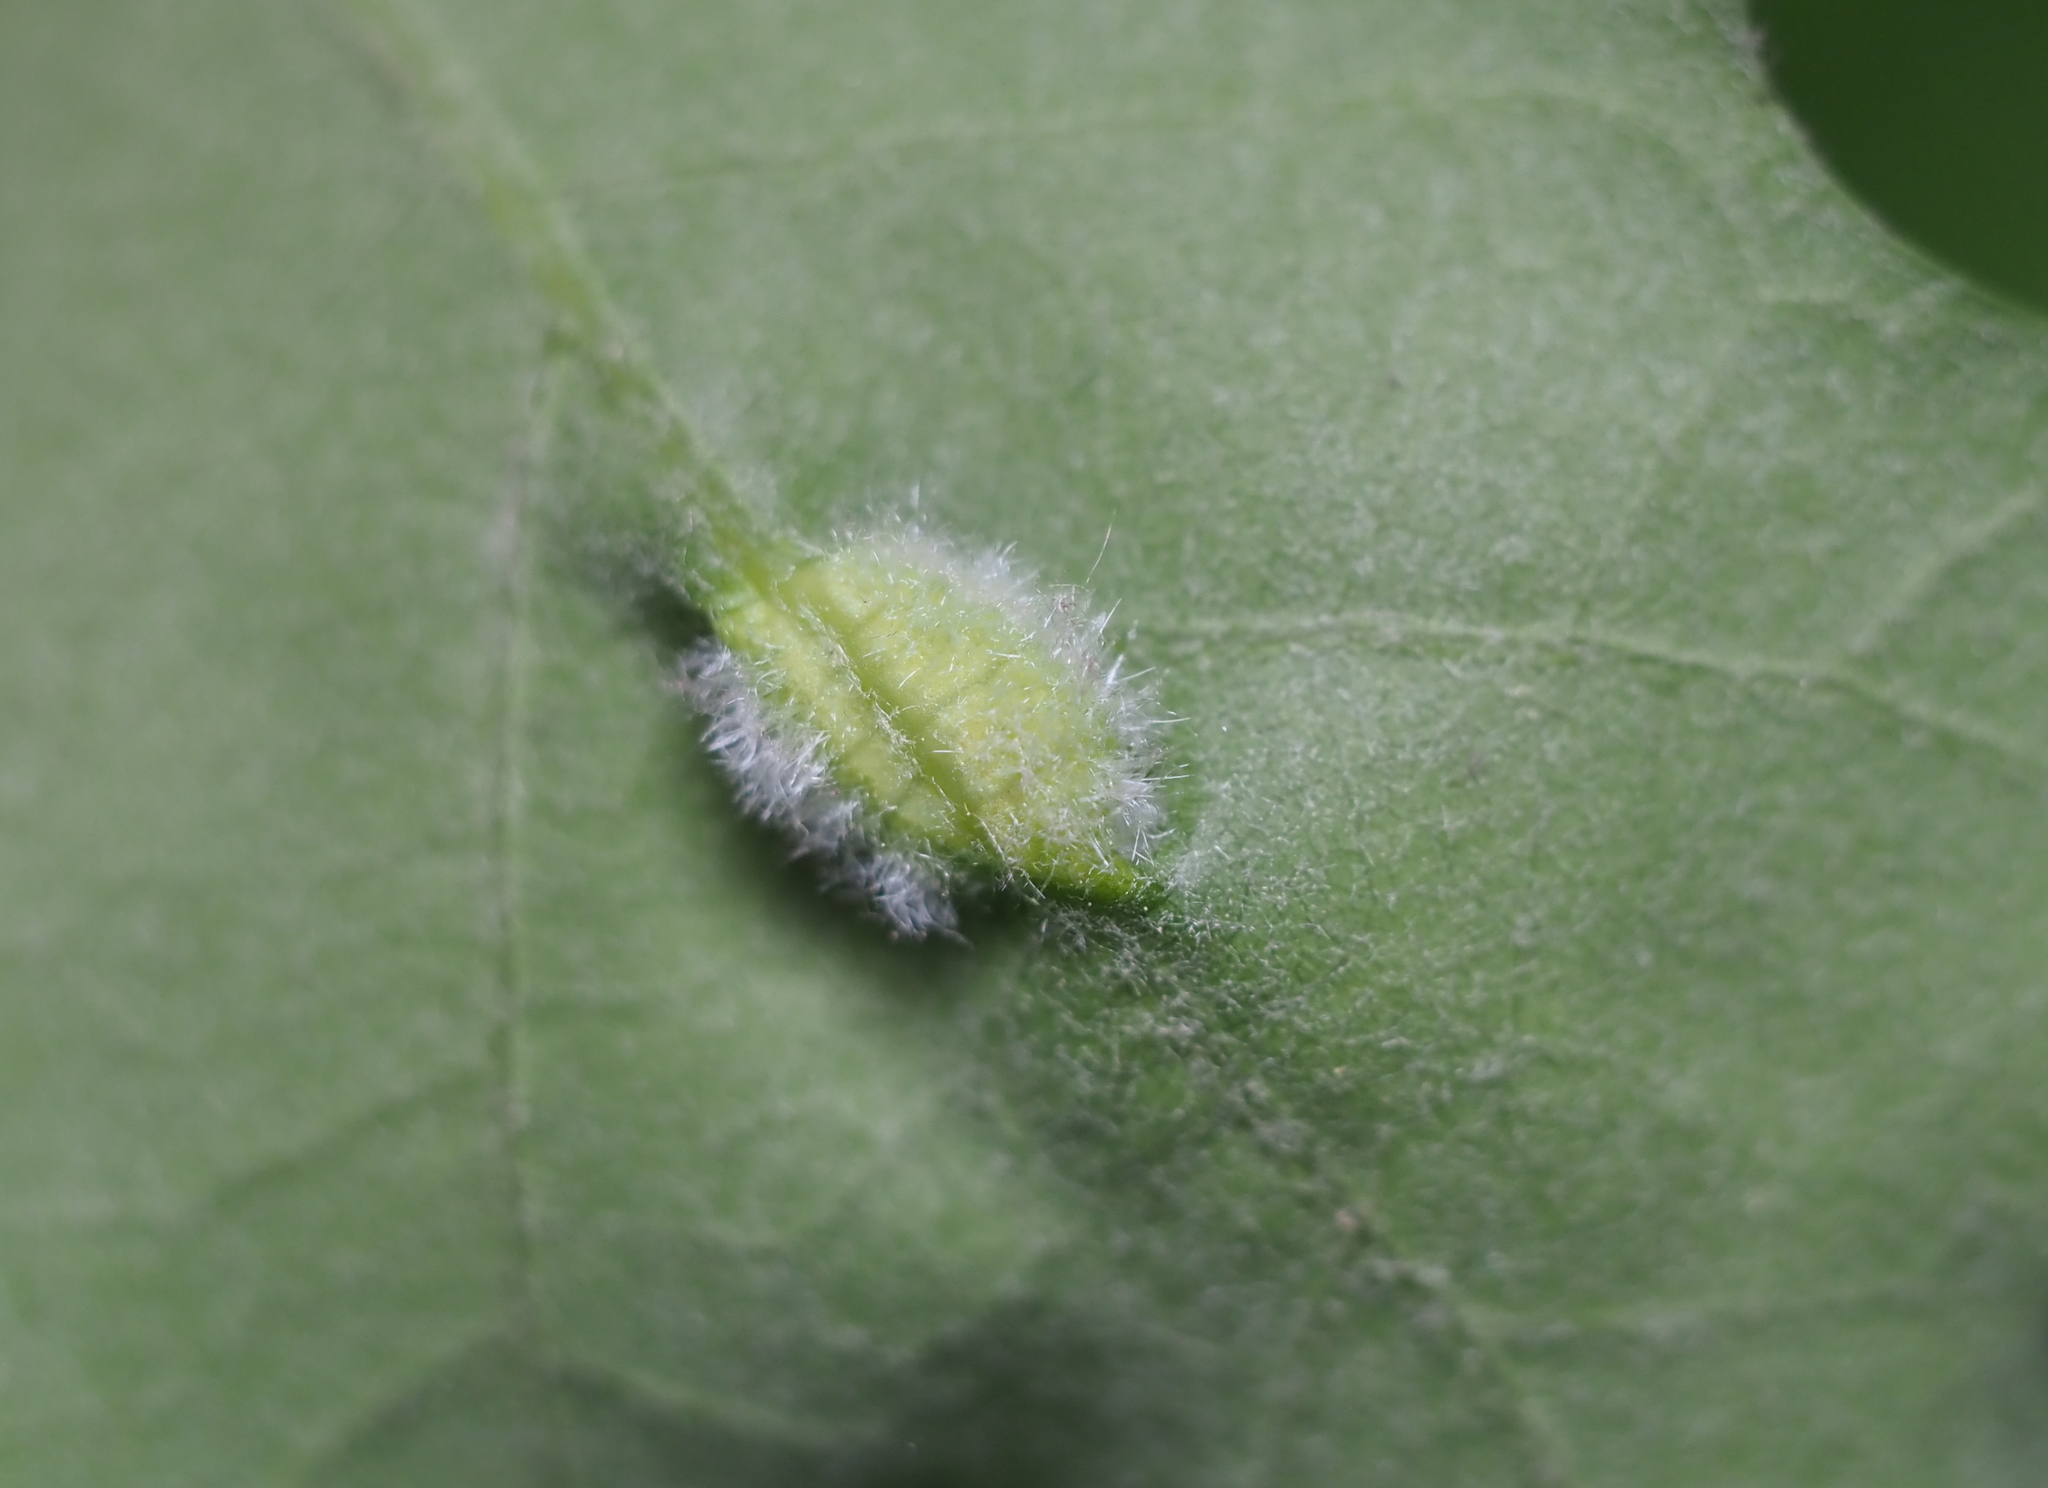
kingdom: Animalia
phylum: Arthropoda
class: Insecta
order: Diptera
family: Cecidomyiidae
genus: Macrodiplosis
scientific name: Macrodiplosis niveipila
